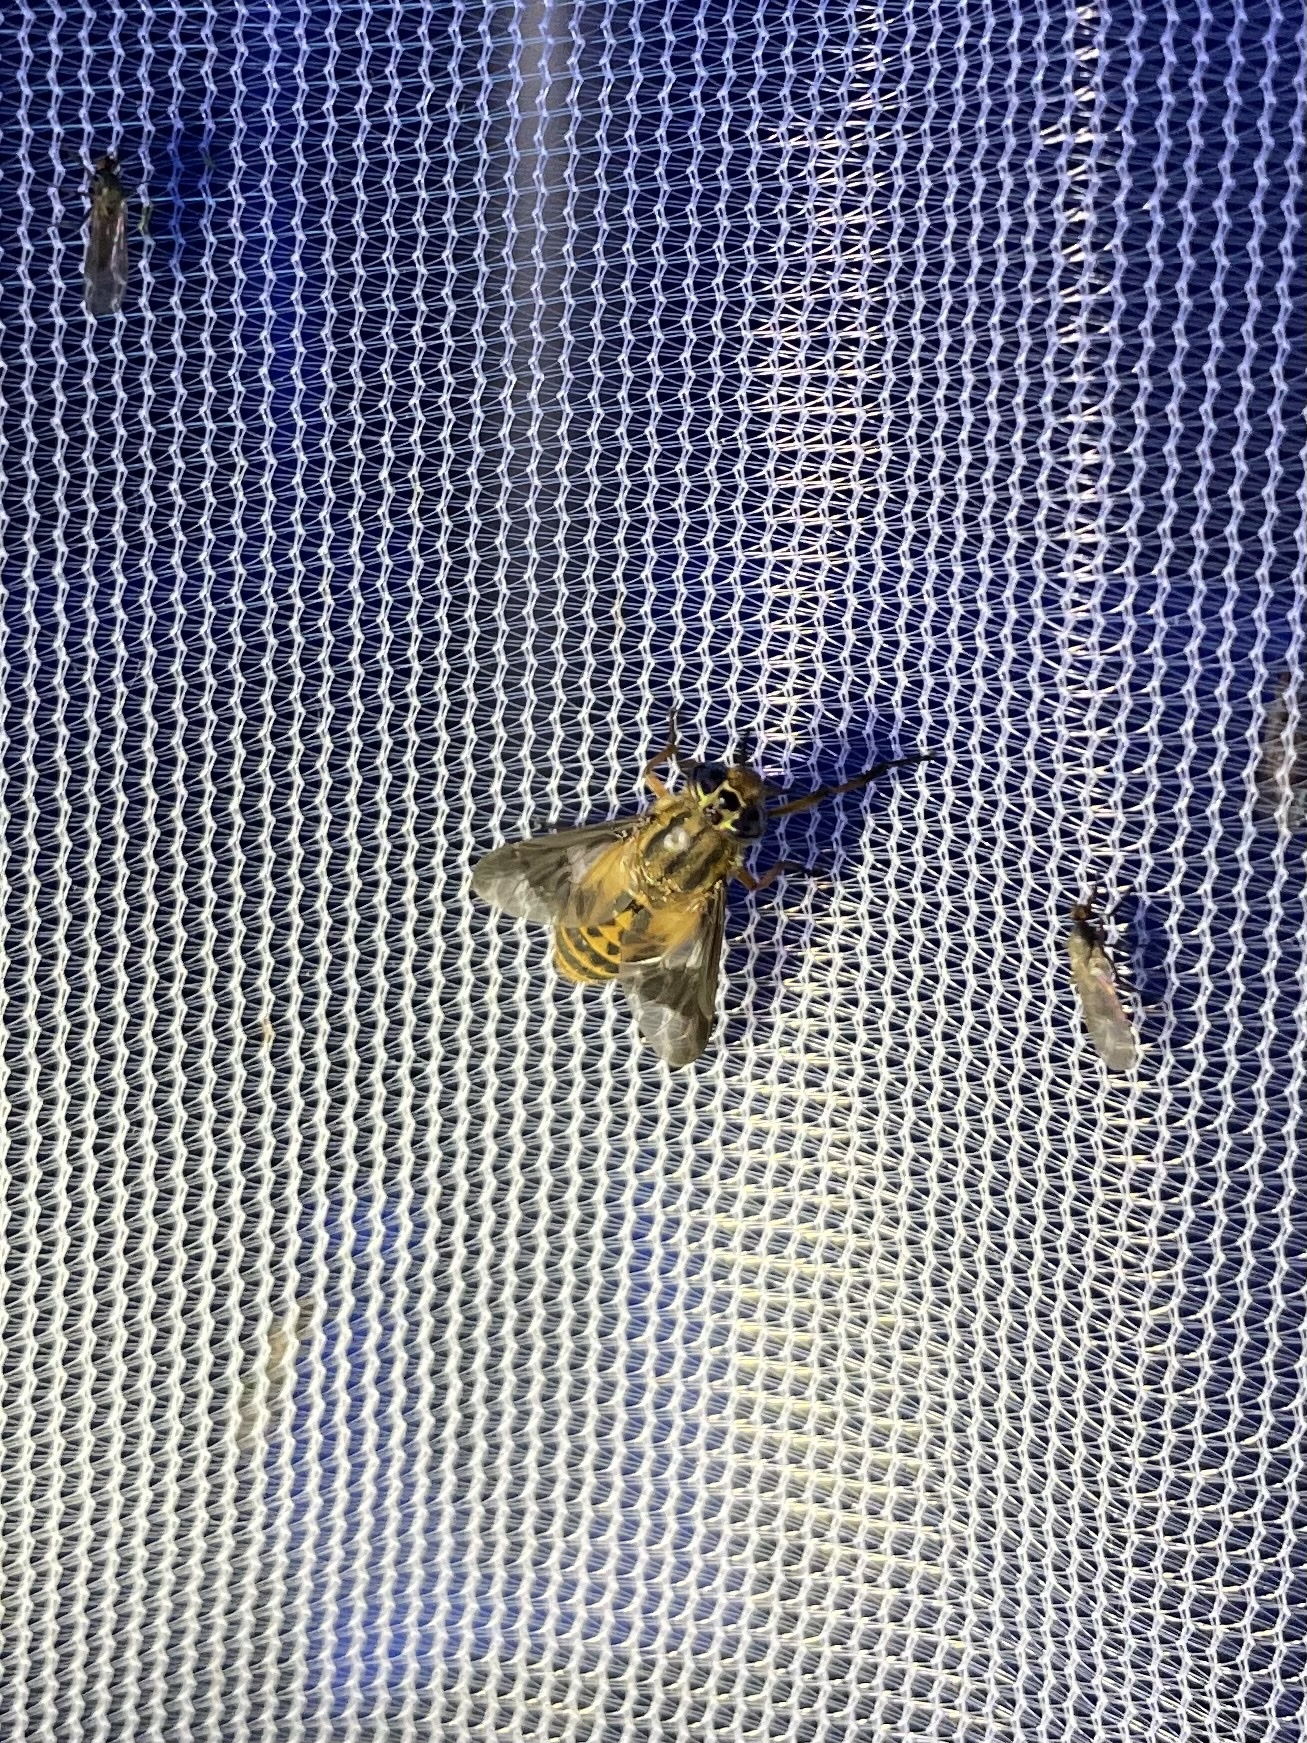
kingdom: Animalia
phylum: Arthropoda
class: Insecta
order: Diptera
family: Tabanidae
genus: Chrysops
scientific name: Chrysops montanus
